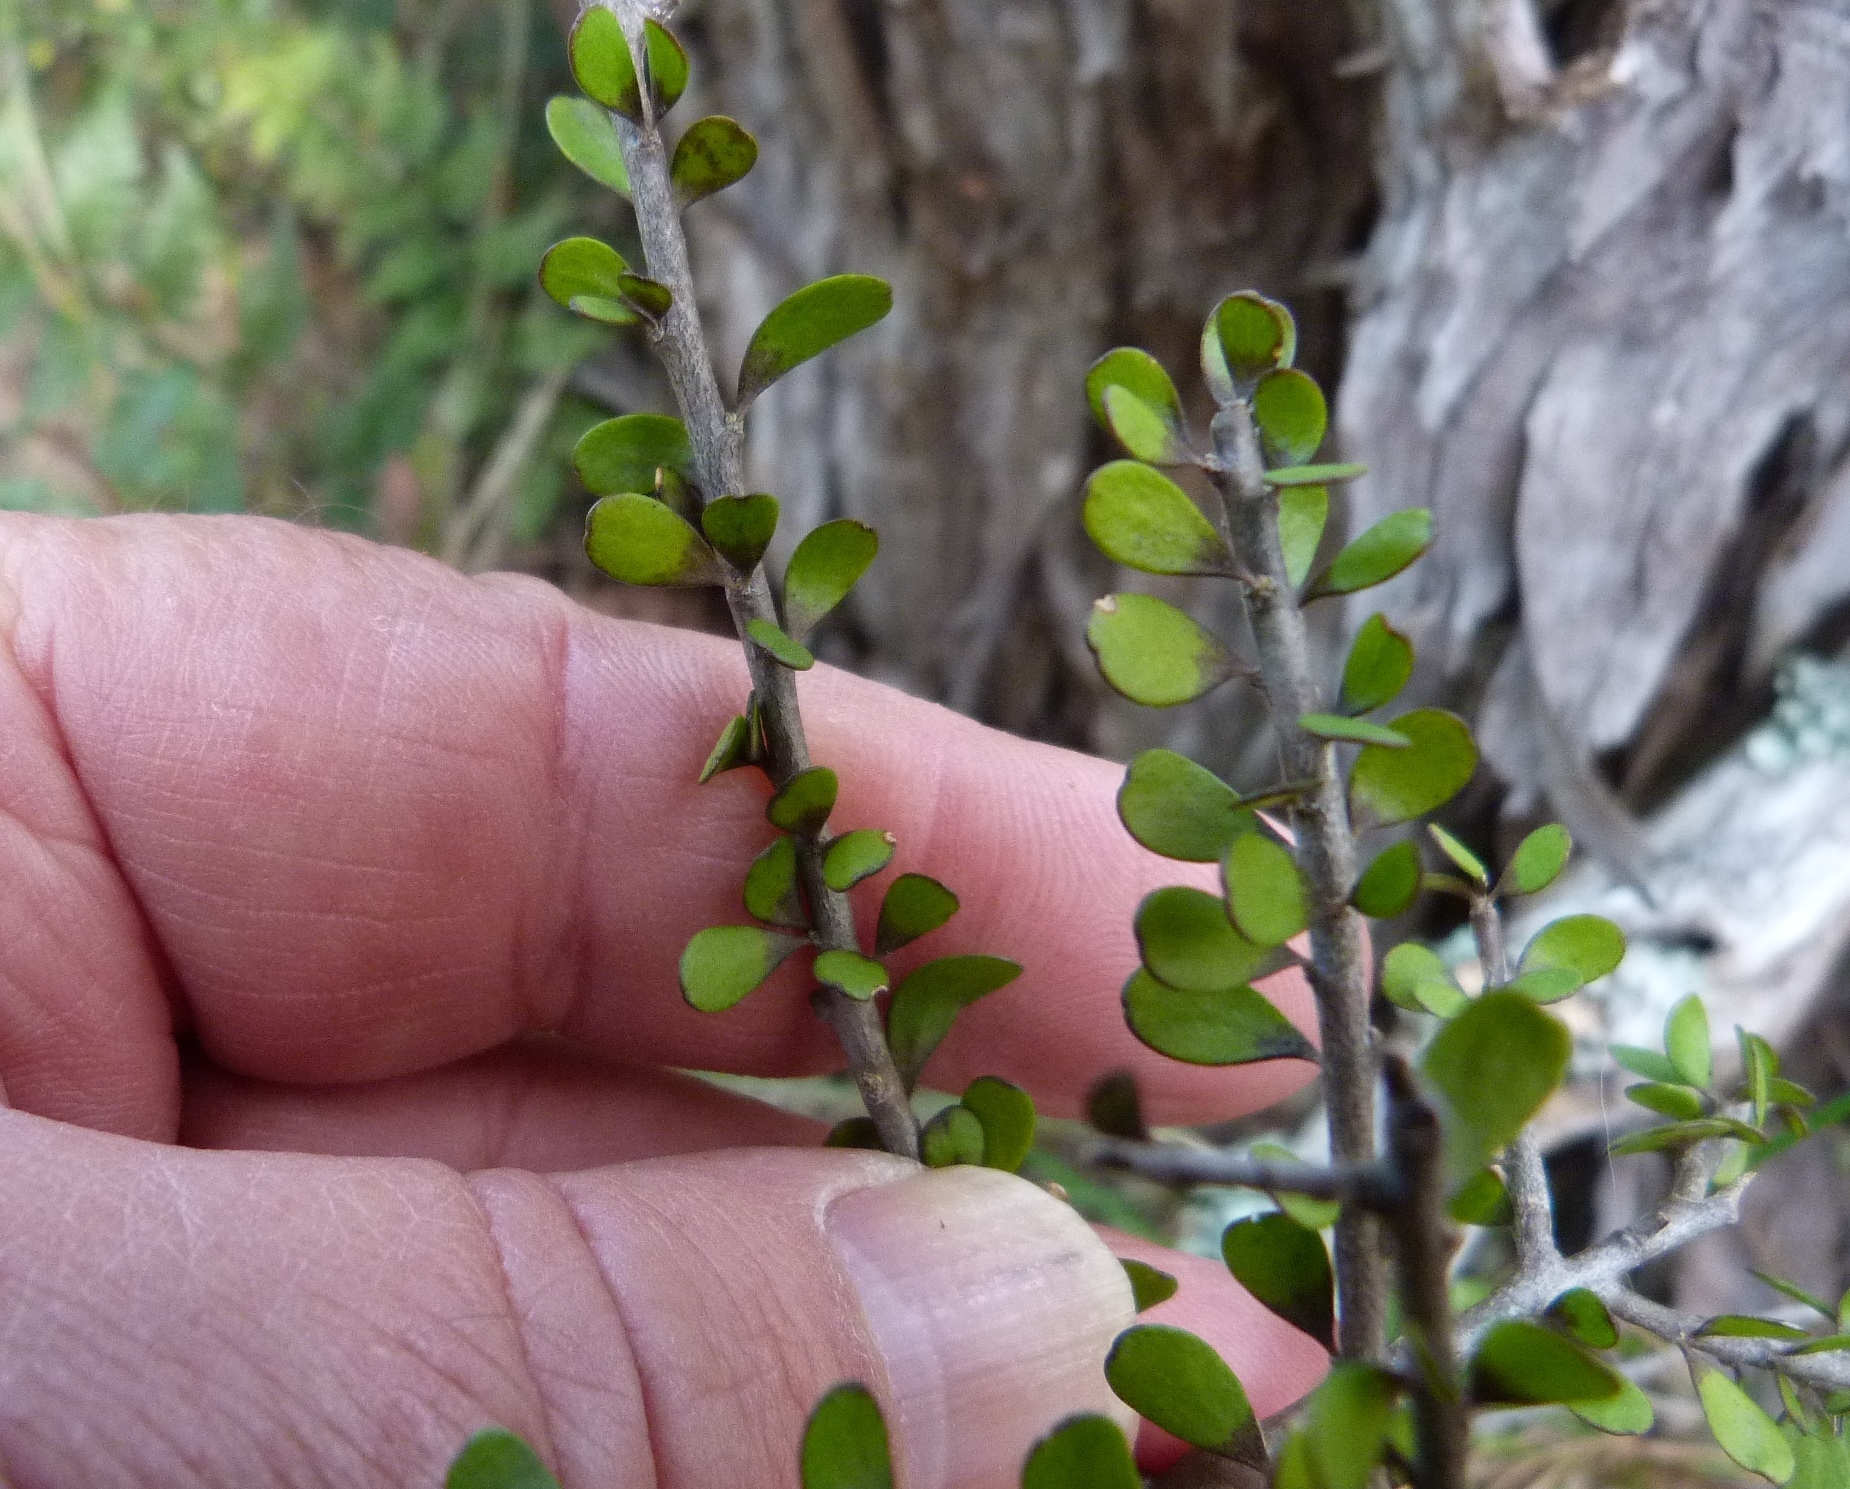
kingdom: Plantae
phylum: Tracheophyta
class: Magnoliopsida
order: Malpighiales
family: Violaceae
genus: Melicytus
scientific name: Melicytus alpinus
